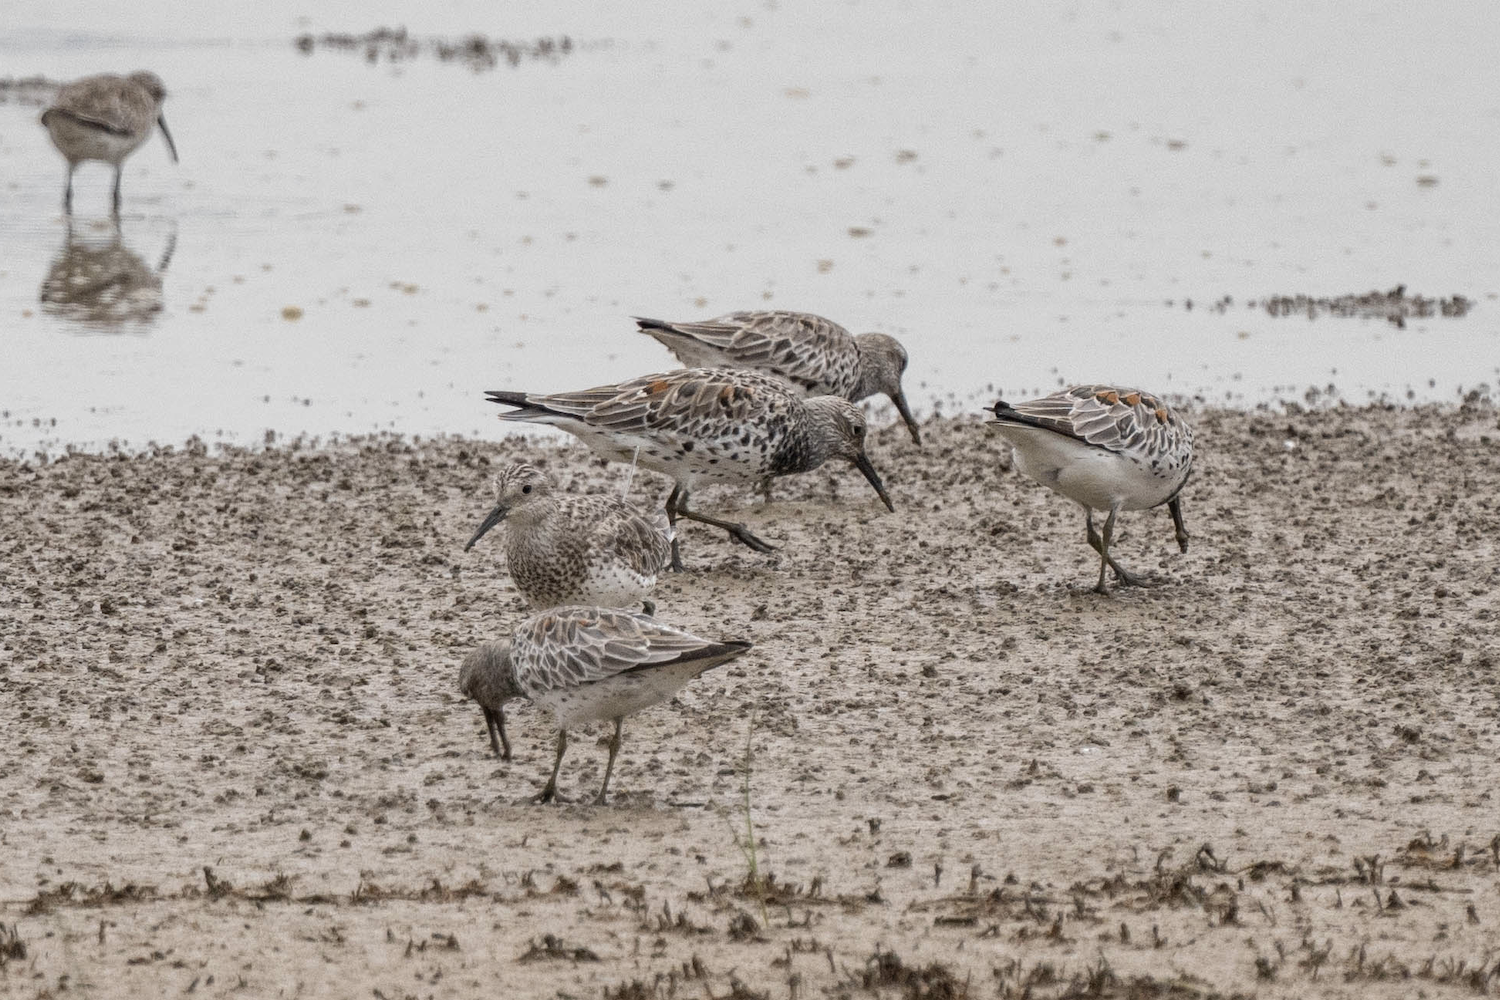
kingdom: Animalia
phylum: Chordata
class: Aves
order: Charadriiformes
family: Scolopacidae
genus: Calidris
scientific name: Calidris tenuirostris
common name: Great knot
